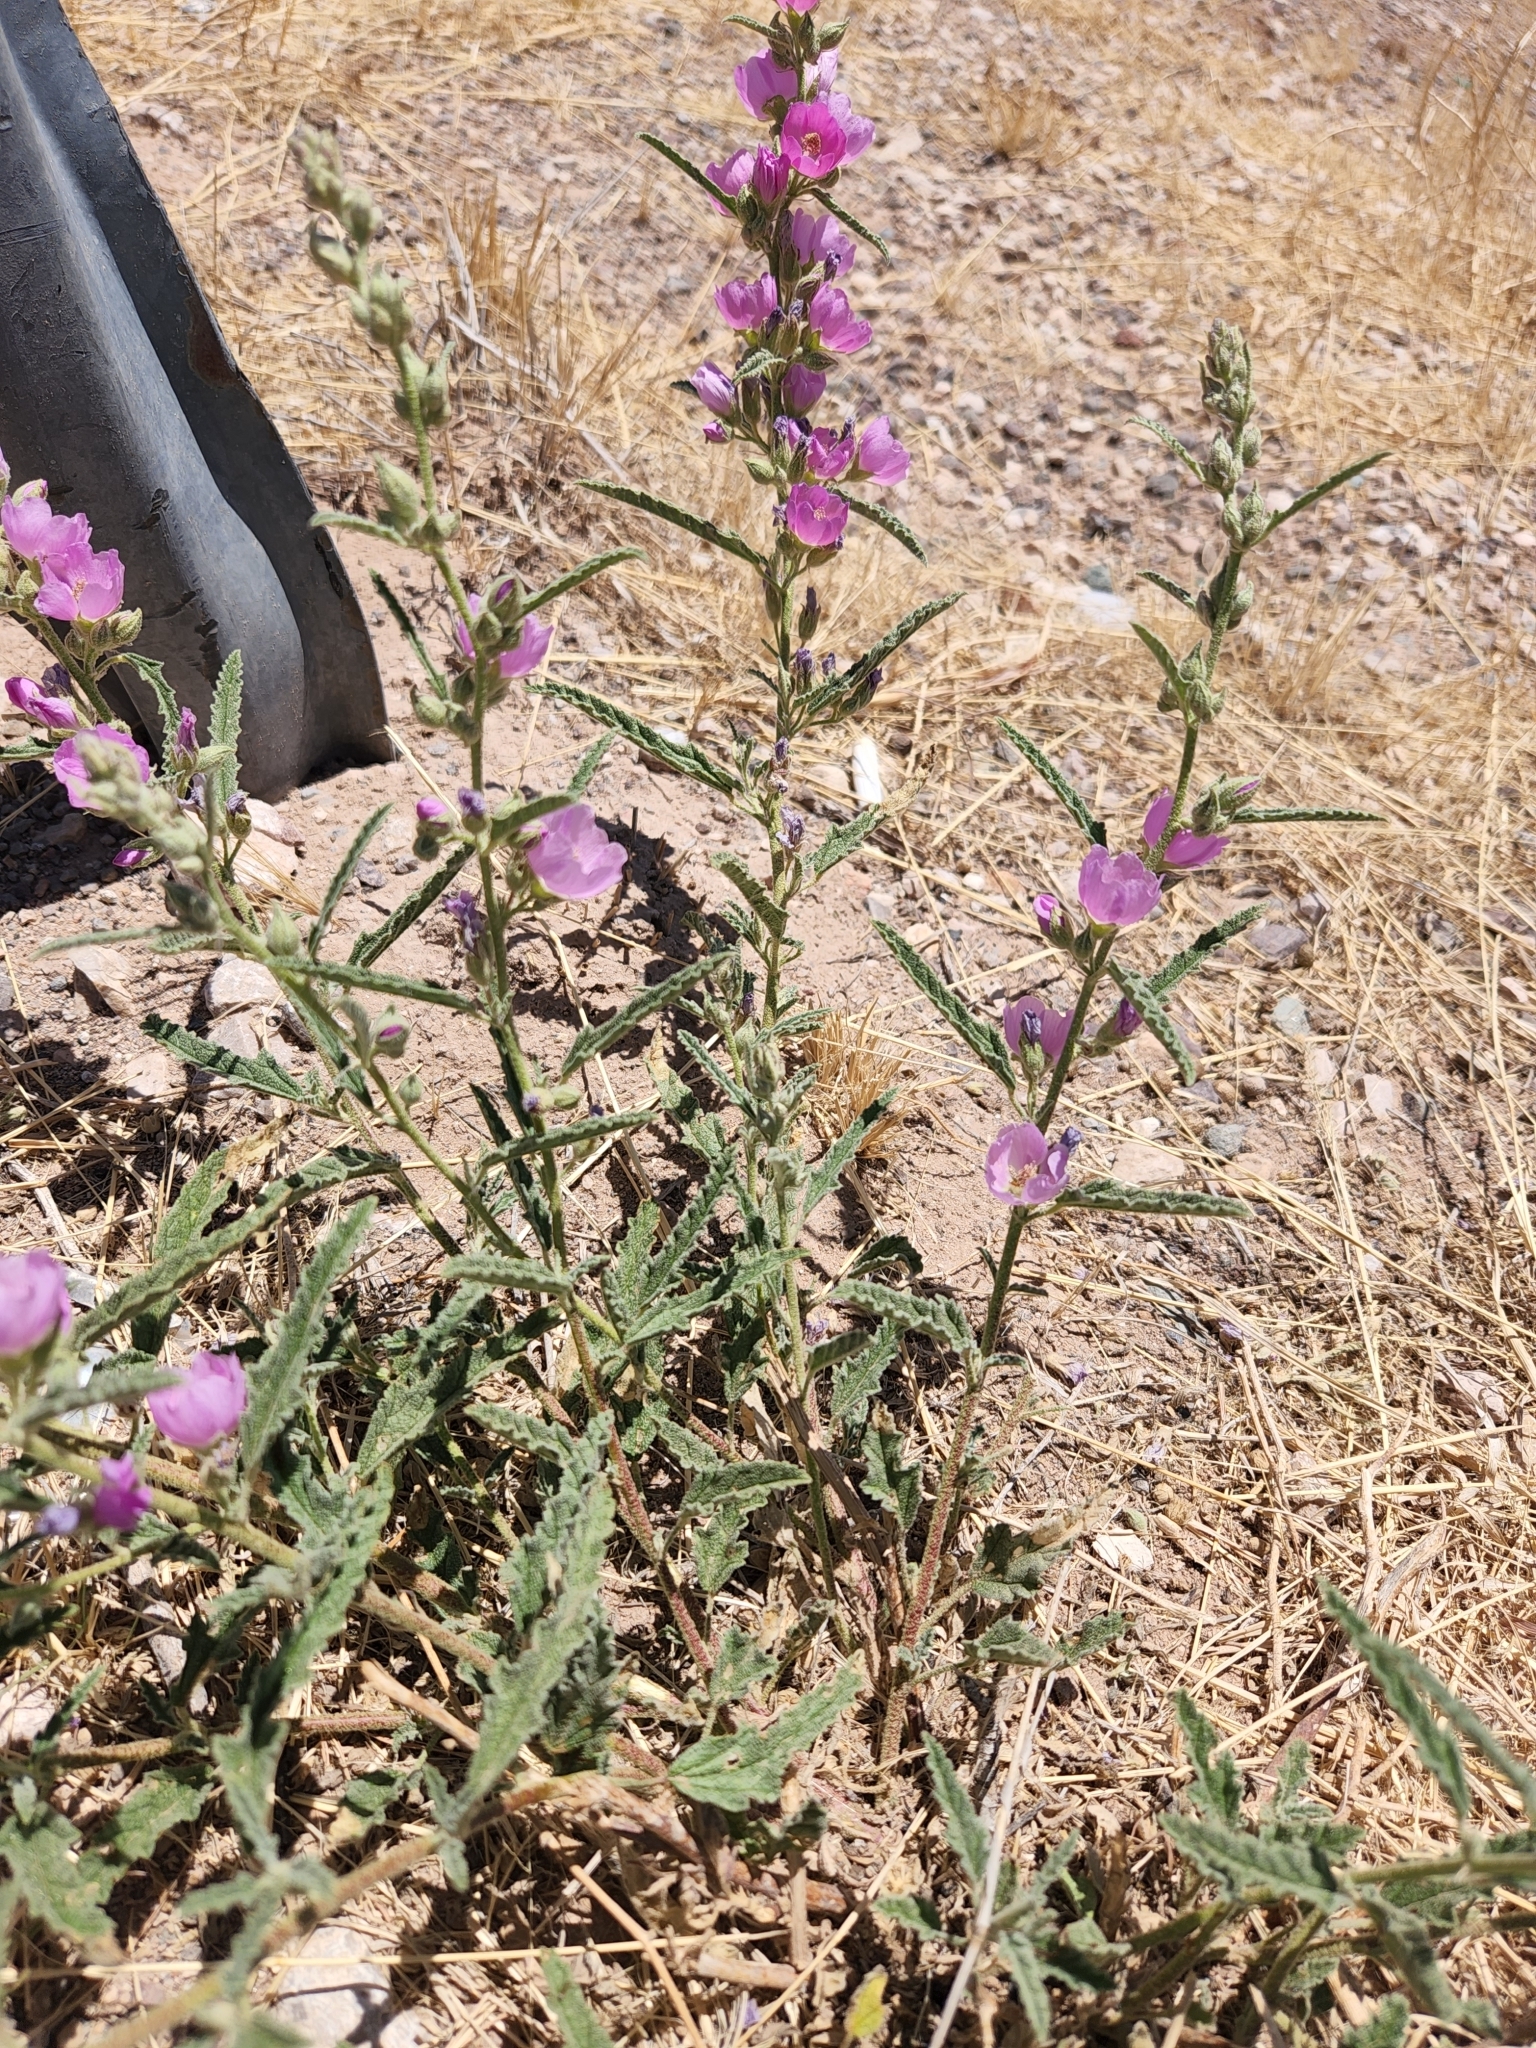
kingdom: Plantae
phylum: Tracheophyta
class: Magnoliopsida
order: Malvales
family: Malvaceae
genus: Sphaeralcea
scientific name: Sphaeralcea angustifolia
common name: Copper globe-mallow
